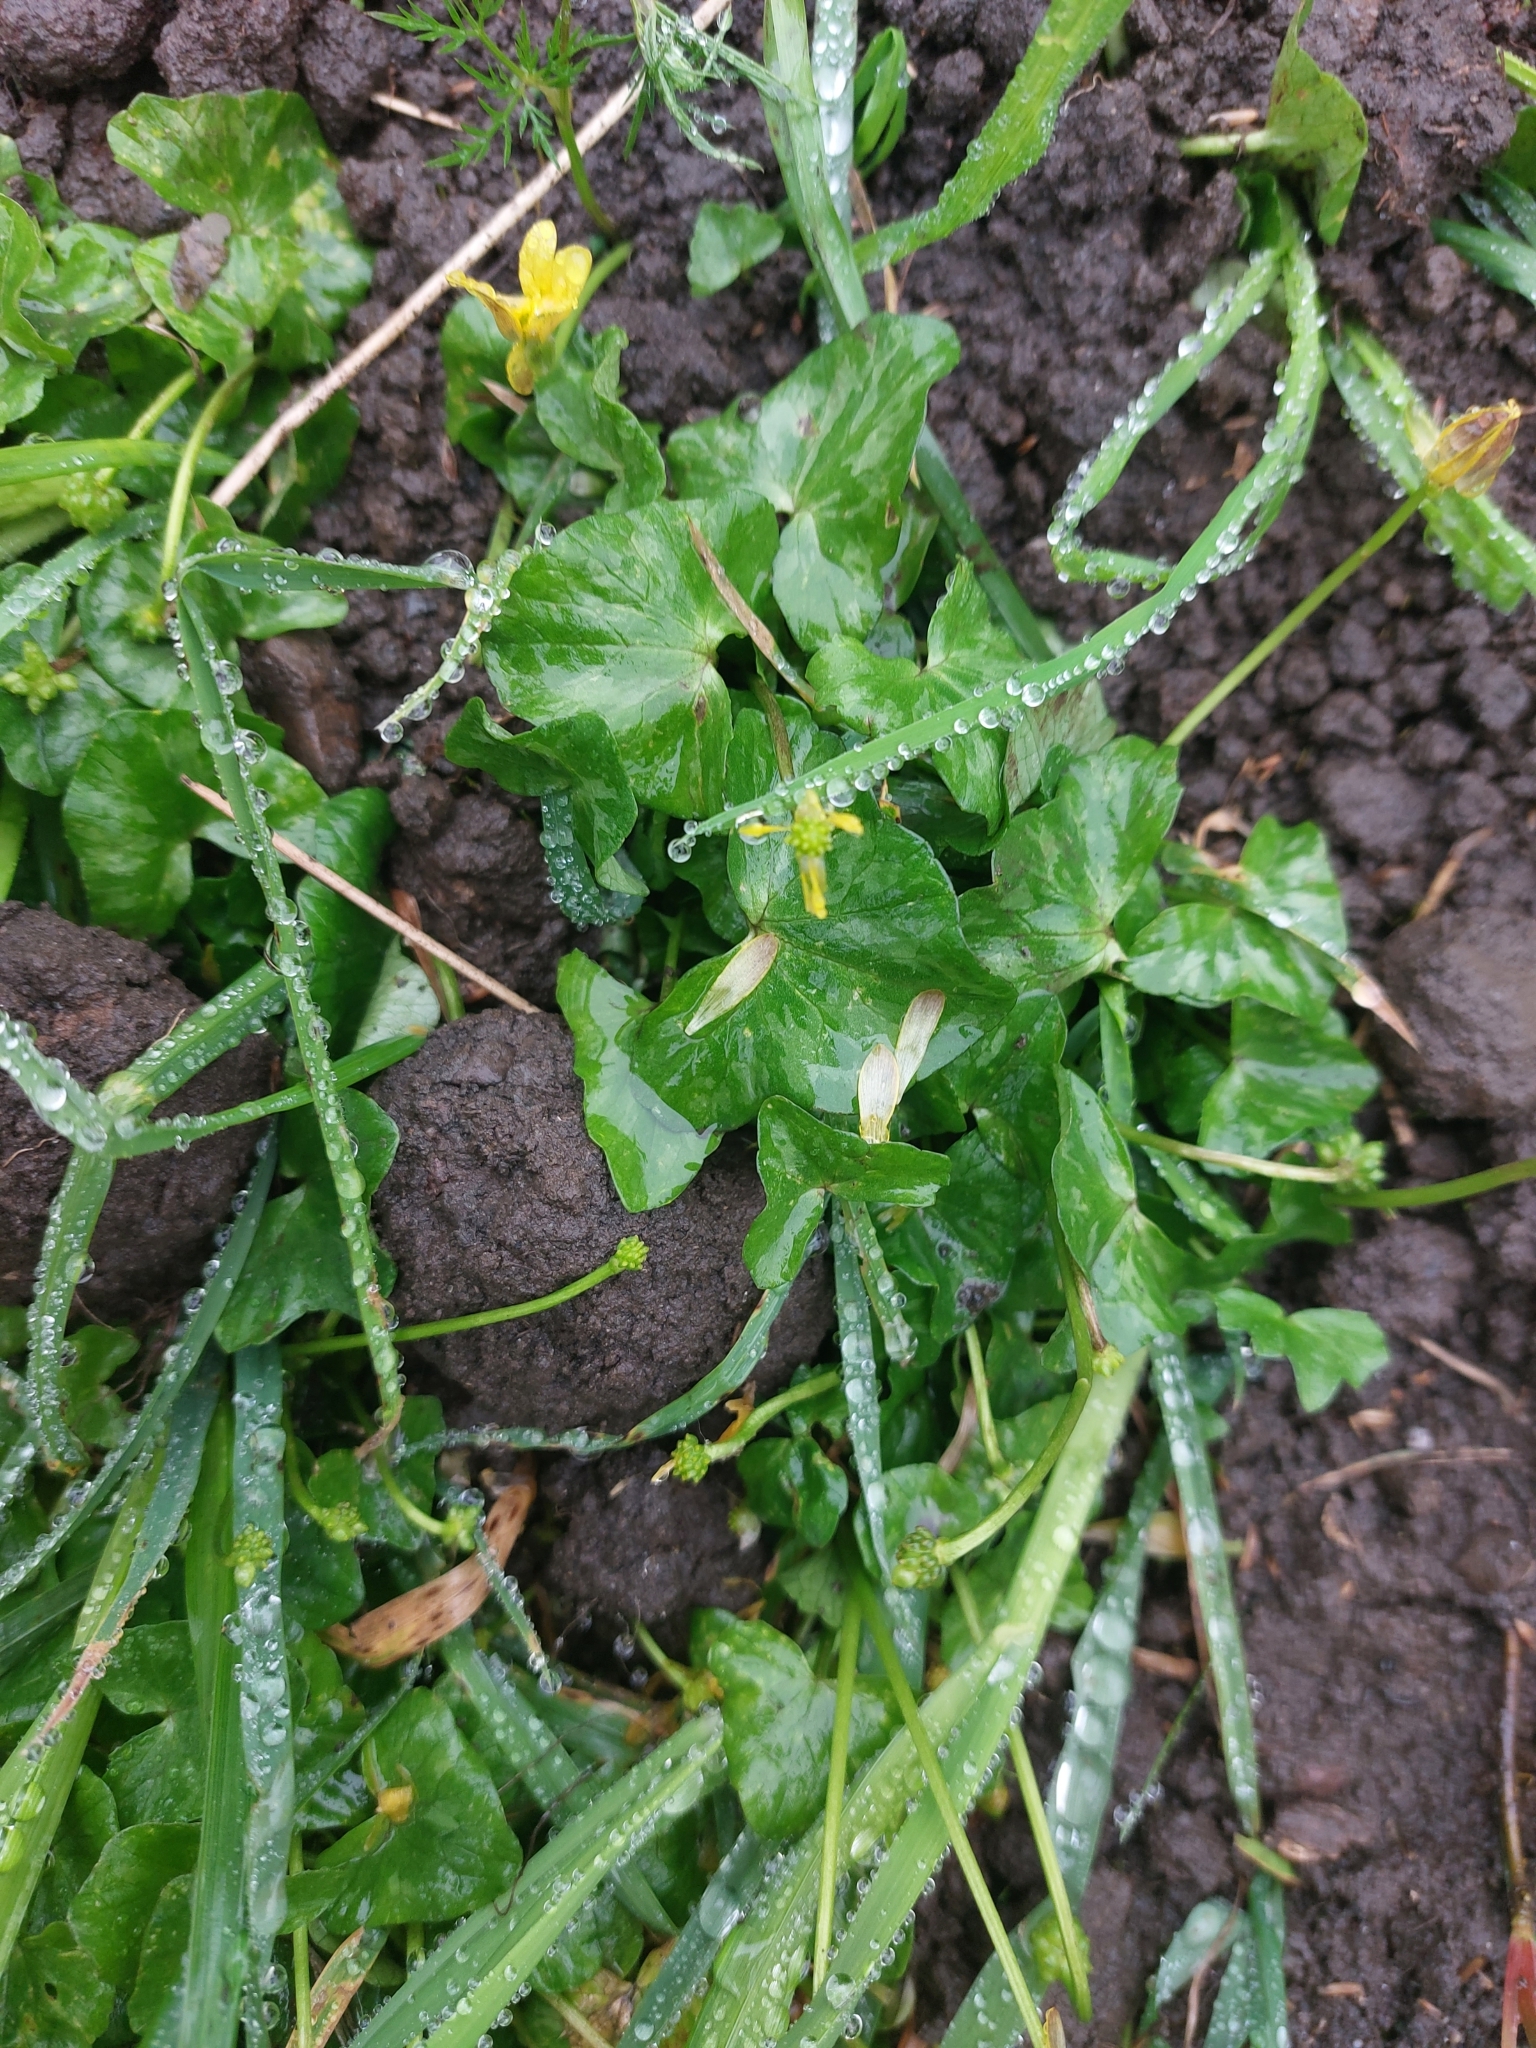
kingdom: Plantae
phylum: Tracheophyta
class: Magnoliopsida
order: Ranunculales
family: Ranunculaceae
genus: Ficaria
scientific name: Ficaria verna
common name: Lesser celandine
